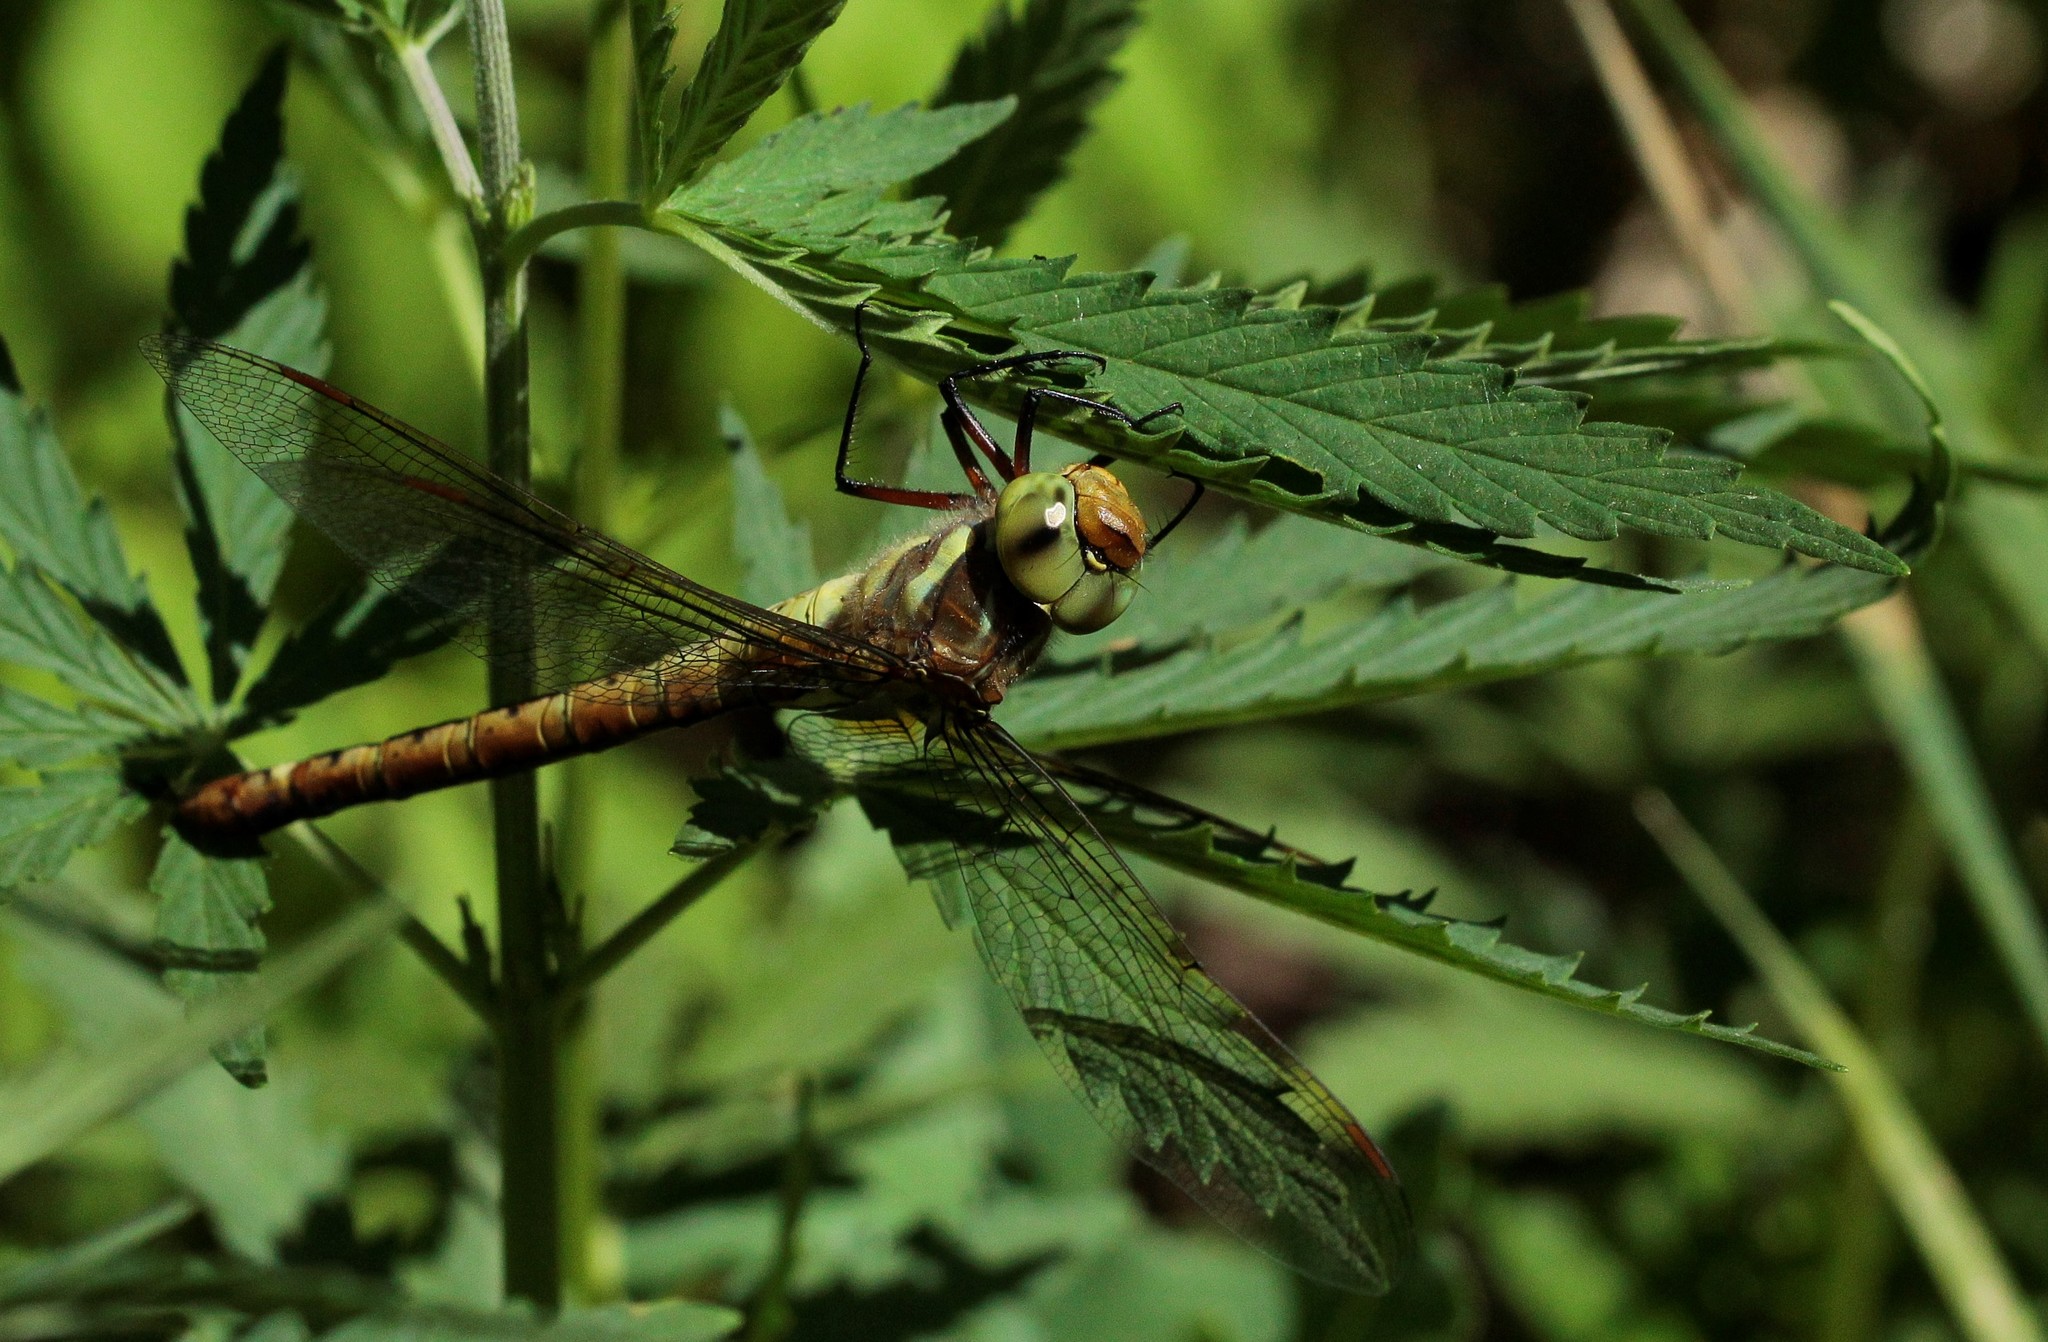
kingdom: Animalia
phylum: Arthropoda
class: Insecta
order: Odonata
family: Aeshnidae
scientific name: Aeshnidae
